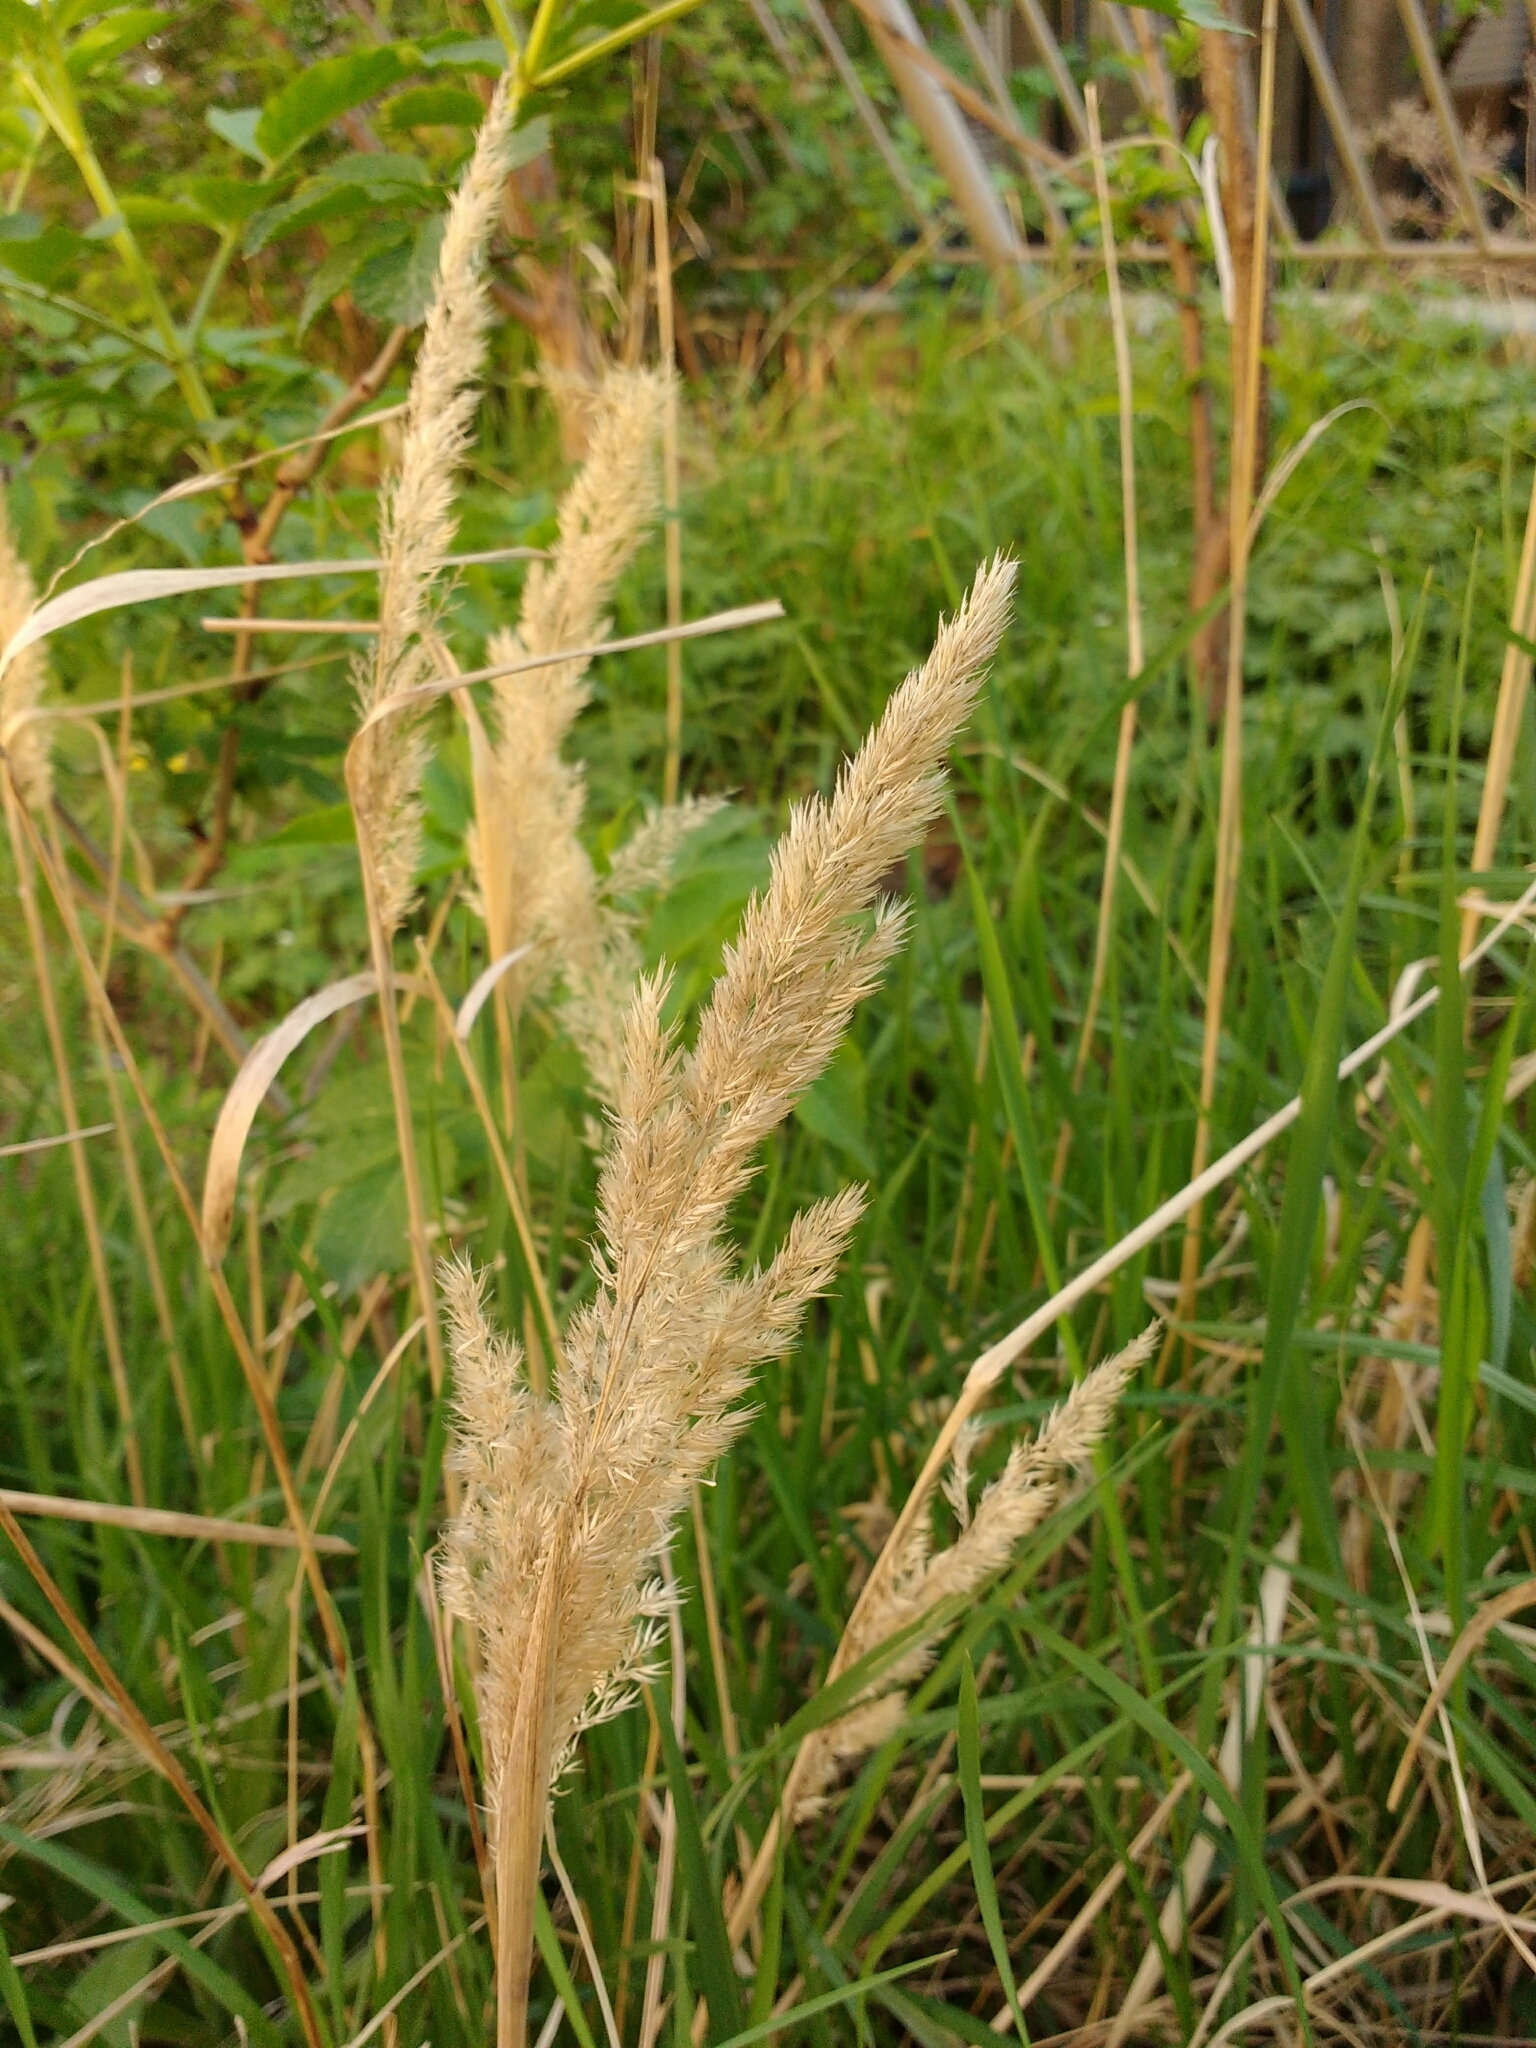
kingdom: Plantae
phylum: Tracheophyta
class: Liliopsida
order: Poales
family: Poaceae
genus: Calamagrostis
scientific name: Calamagrostis epigejos
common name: Wood small-reed
